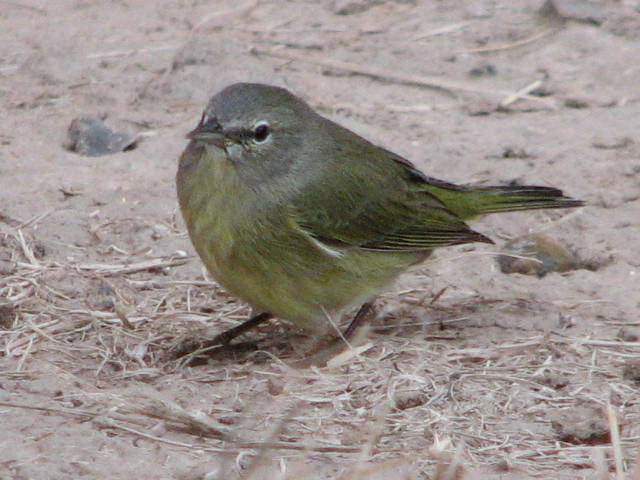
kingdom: Animalia
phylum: Chordata
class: Aves
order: Passeriformes
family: Parulidae
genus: Leiothlypis
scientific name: Leiothlypis celata
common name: Orange-crowned warbler
